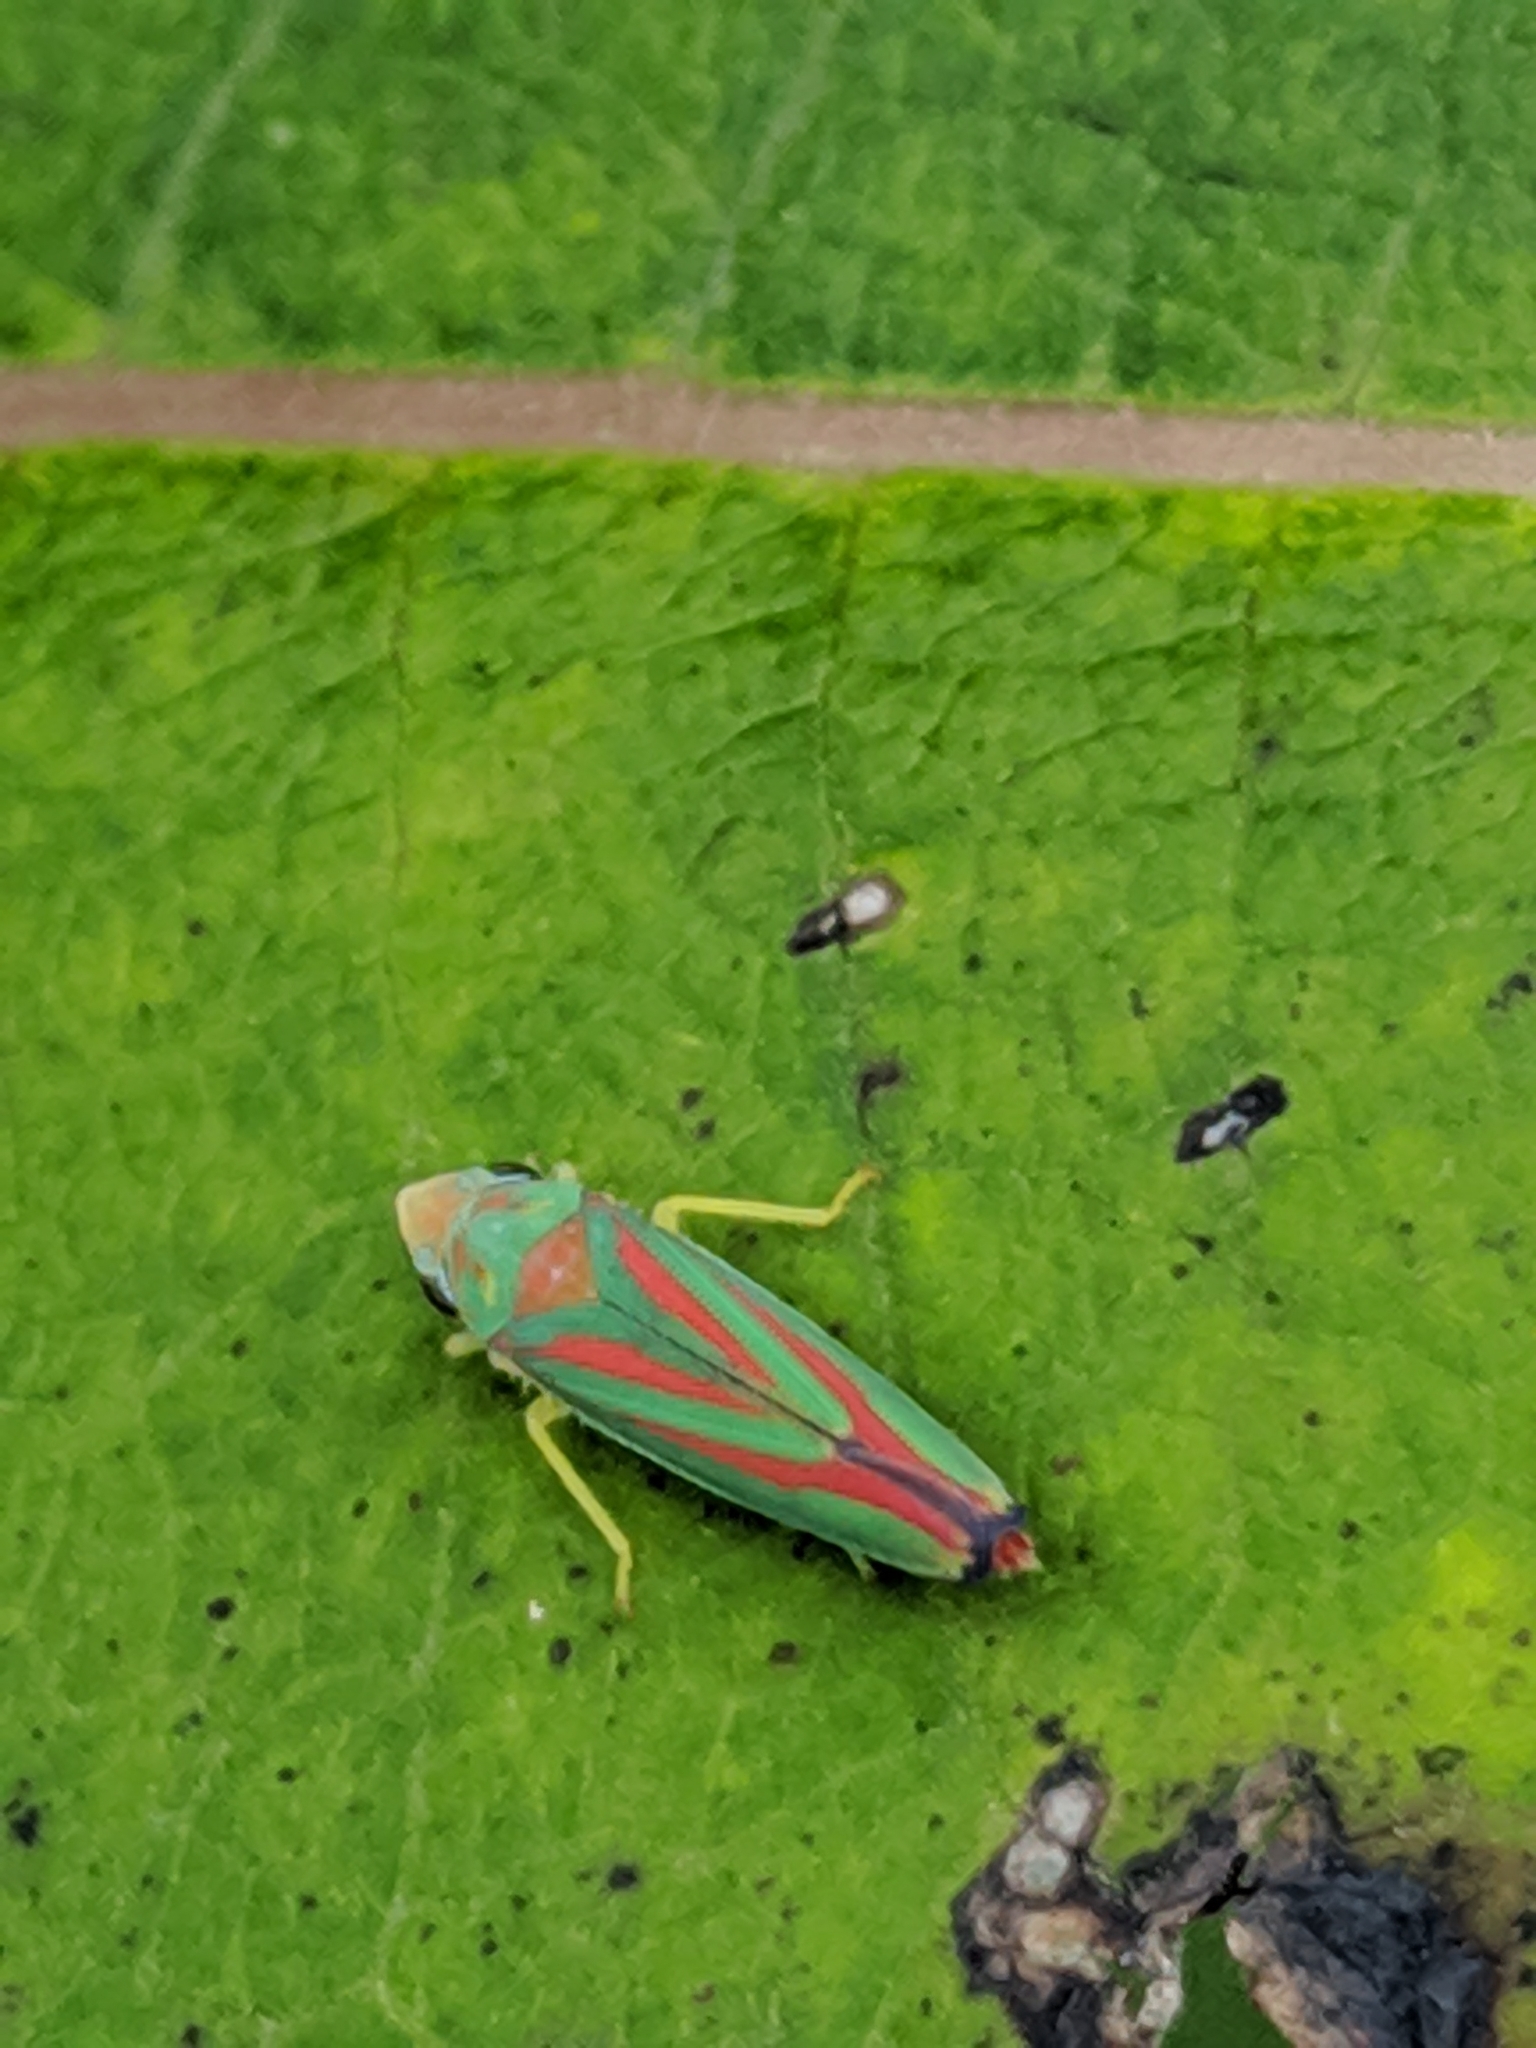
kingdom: Animalia
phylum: Arthropoda
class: Insecta
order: Hemiptera
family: Cicadellidae
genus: Graphocephala
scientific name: Graphocephala coccinea
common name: Candy-striped leafhopper
